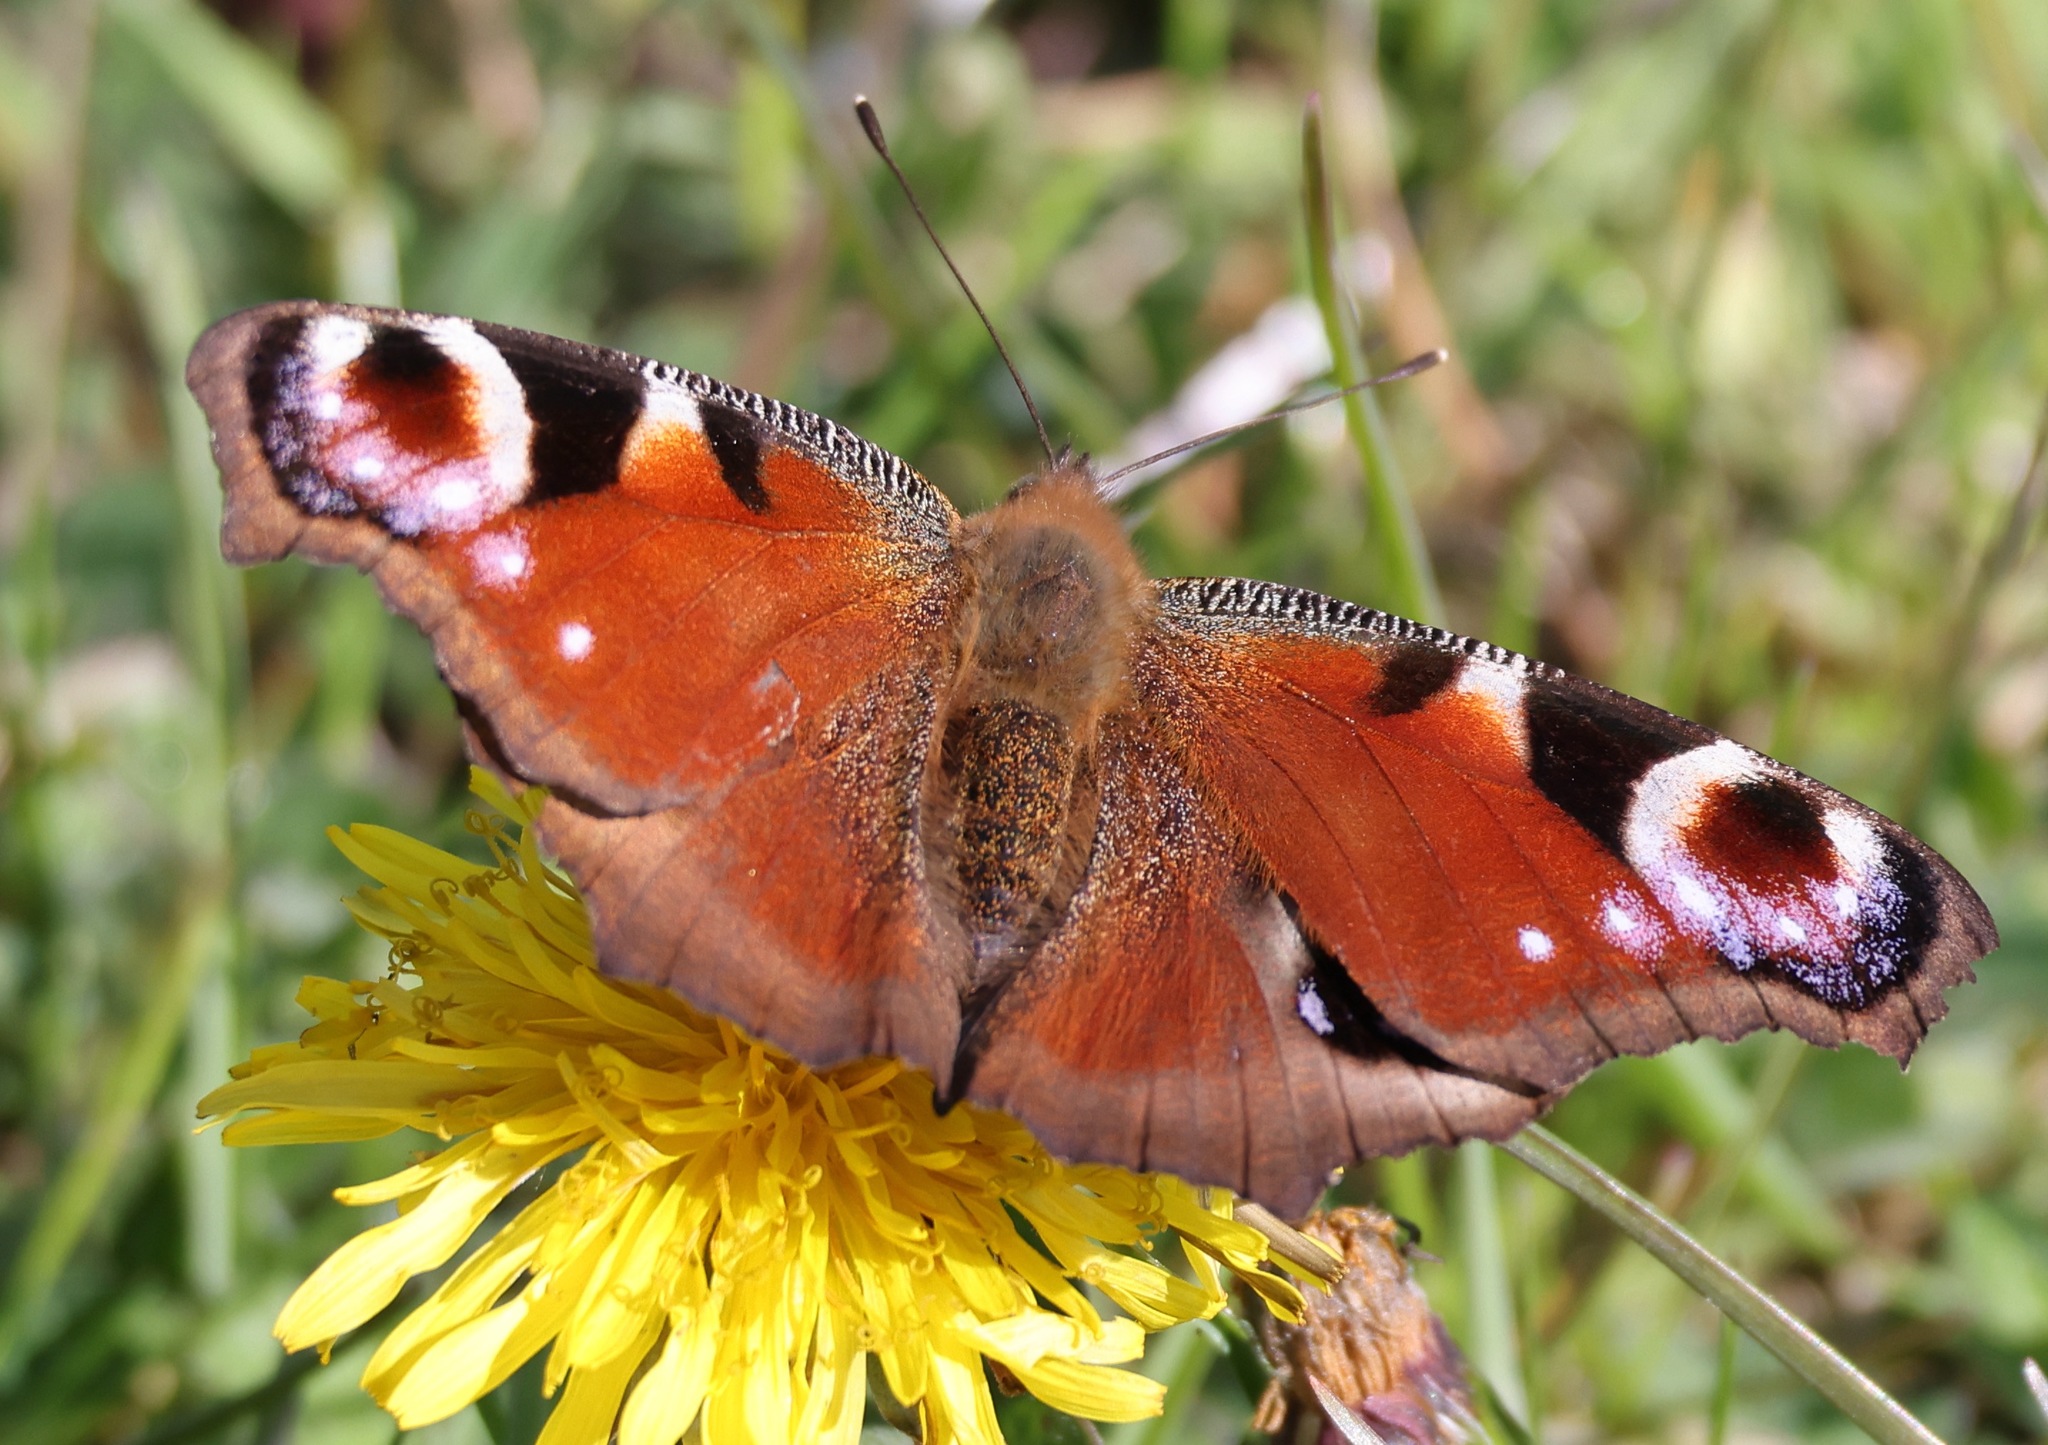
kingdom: Animalia
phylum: Arthropoda
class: Insecta
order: Lepidoptera
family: Nymphalidae
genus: Aglais
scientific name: Aglais io
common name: Peacock
